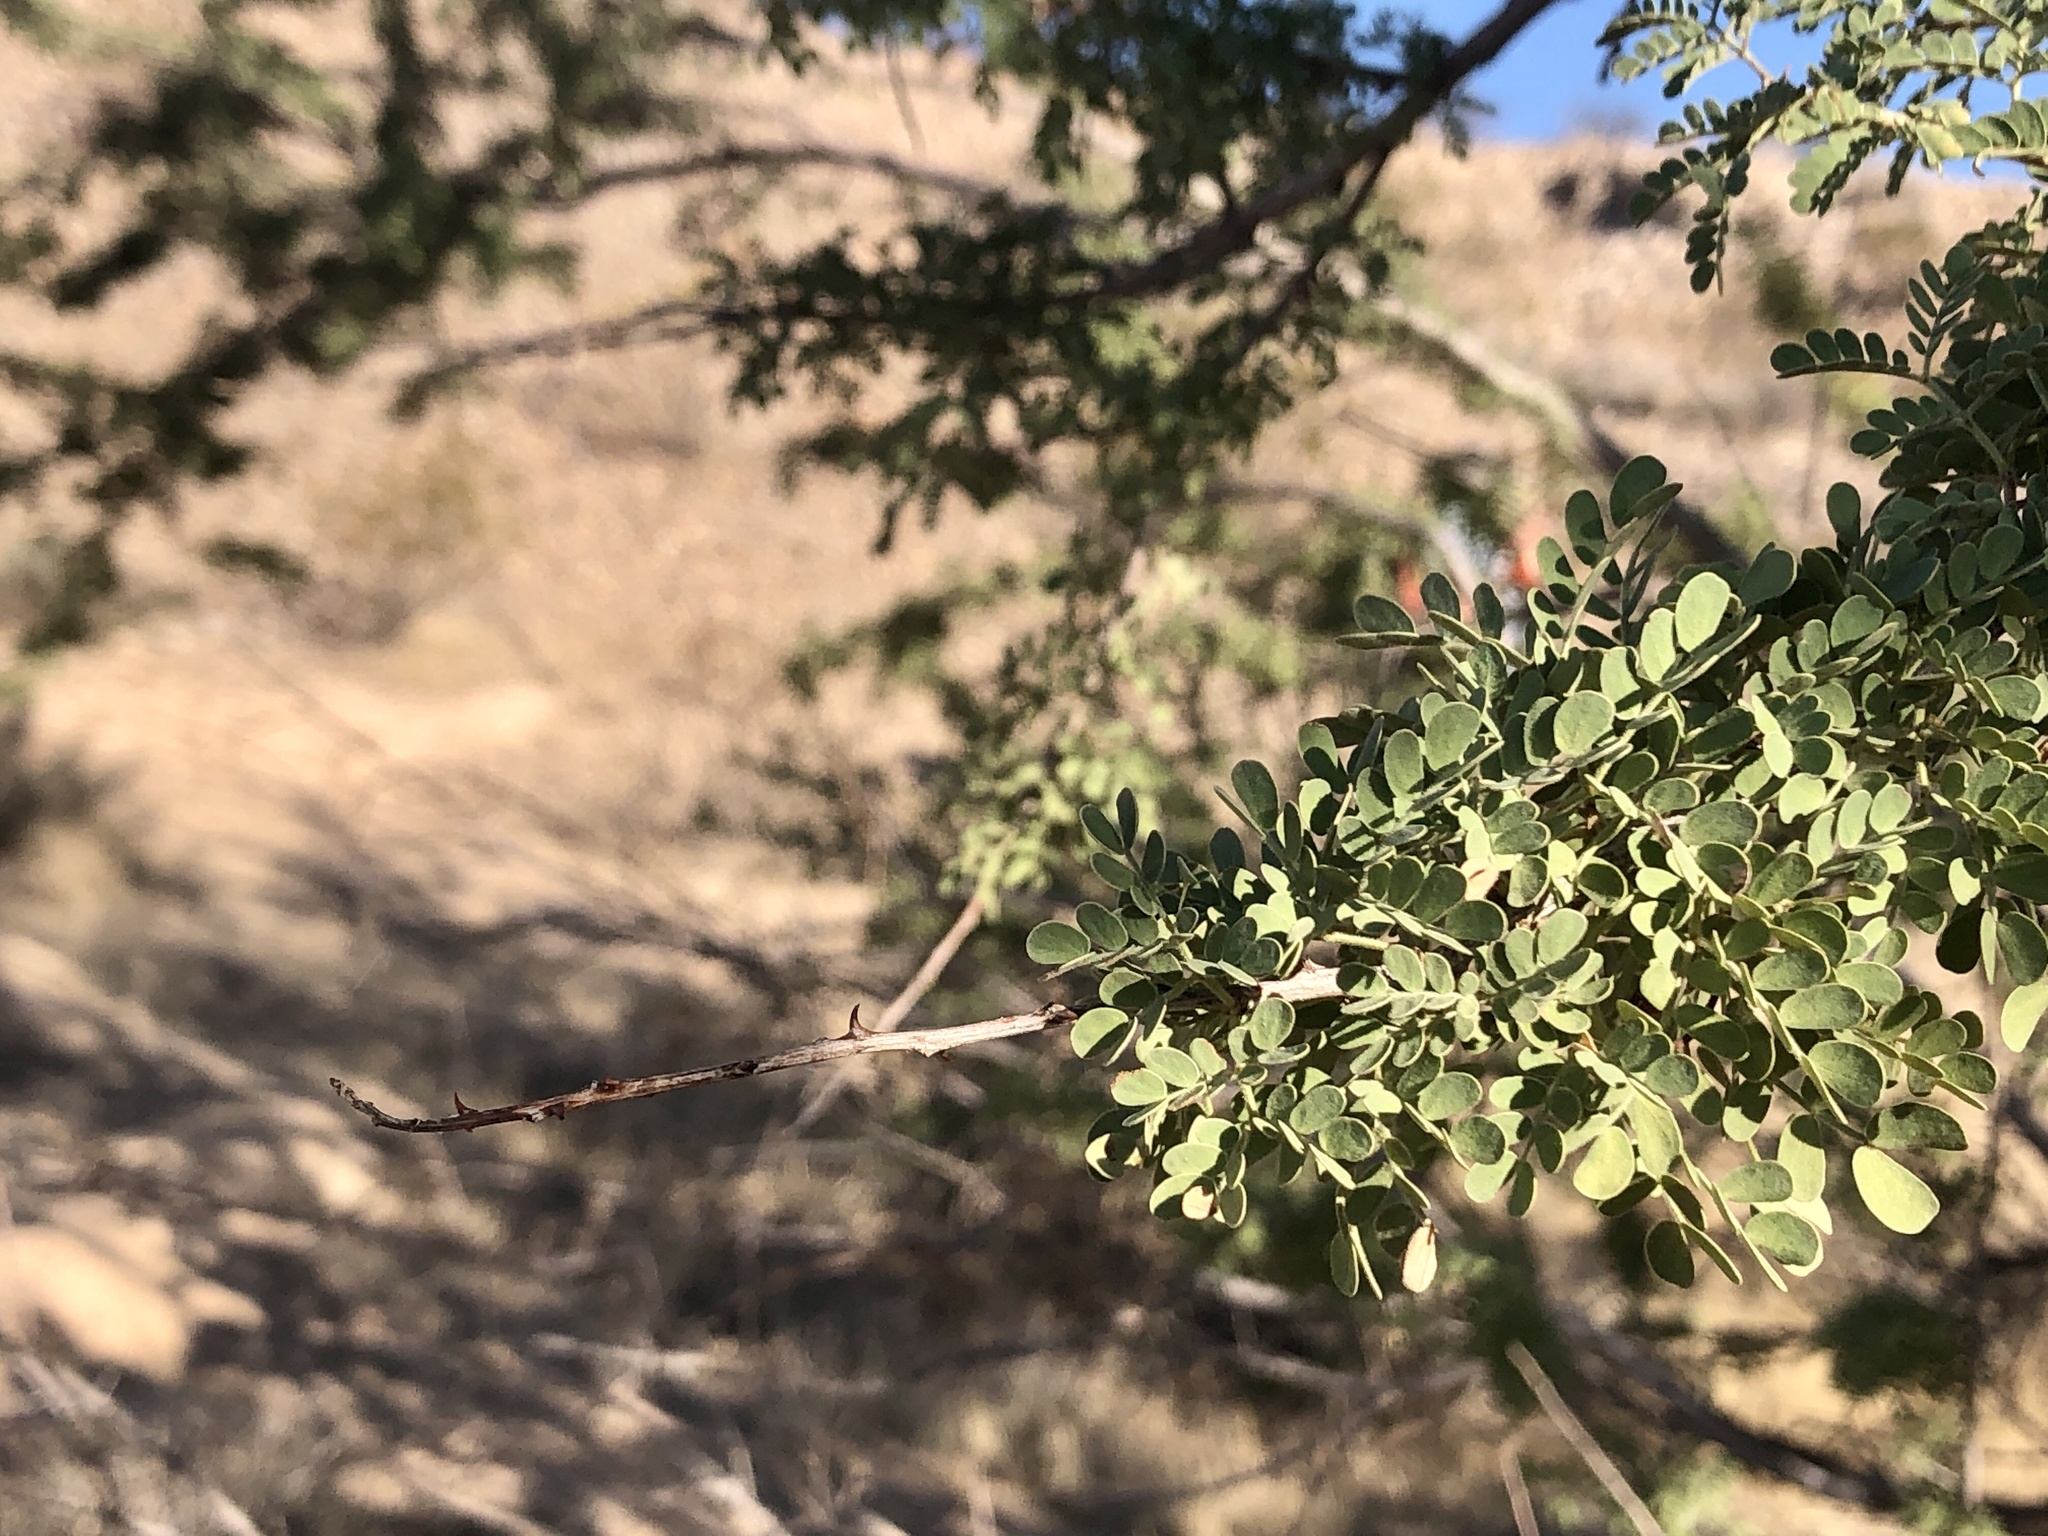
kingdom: Plantae
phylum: Tracheophyta
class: Magnoliopsida
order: Fabales
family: Fabaceae
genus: Senegalia
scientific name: Senegalia greggii
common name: Texas-mimosa
